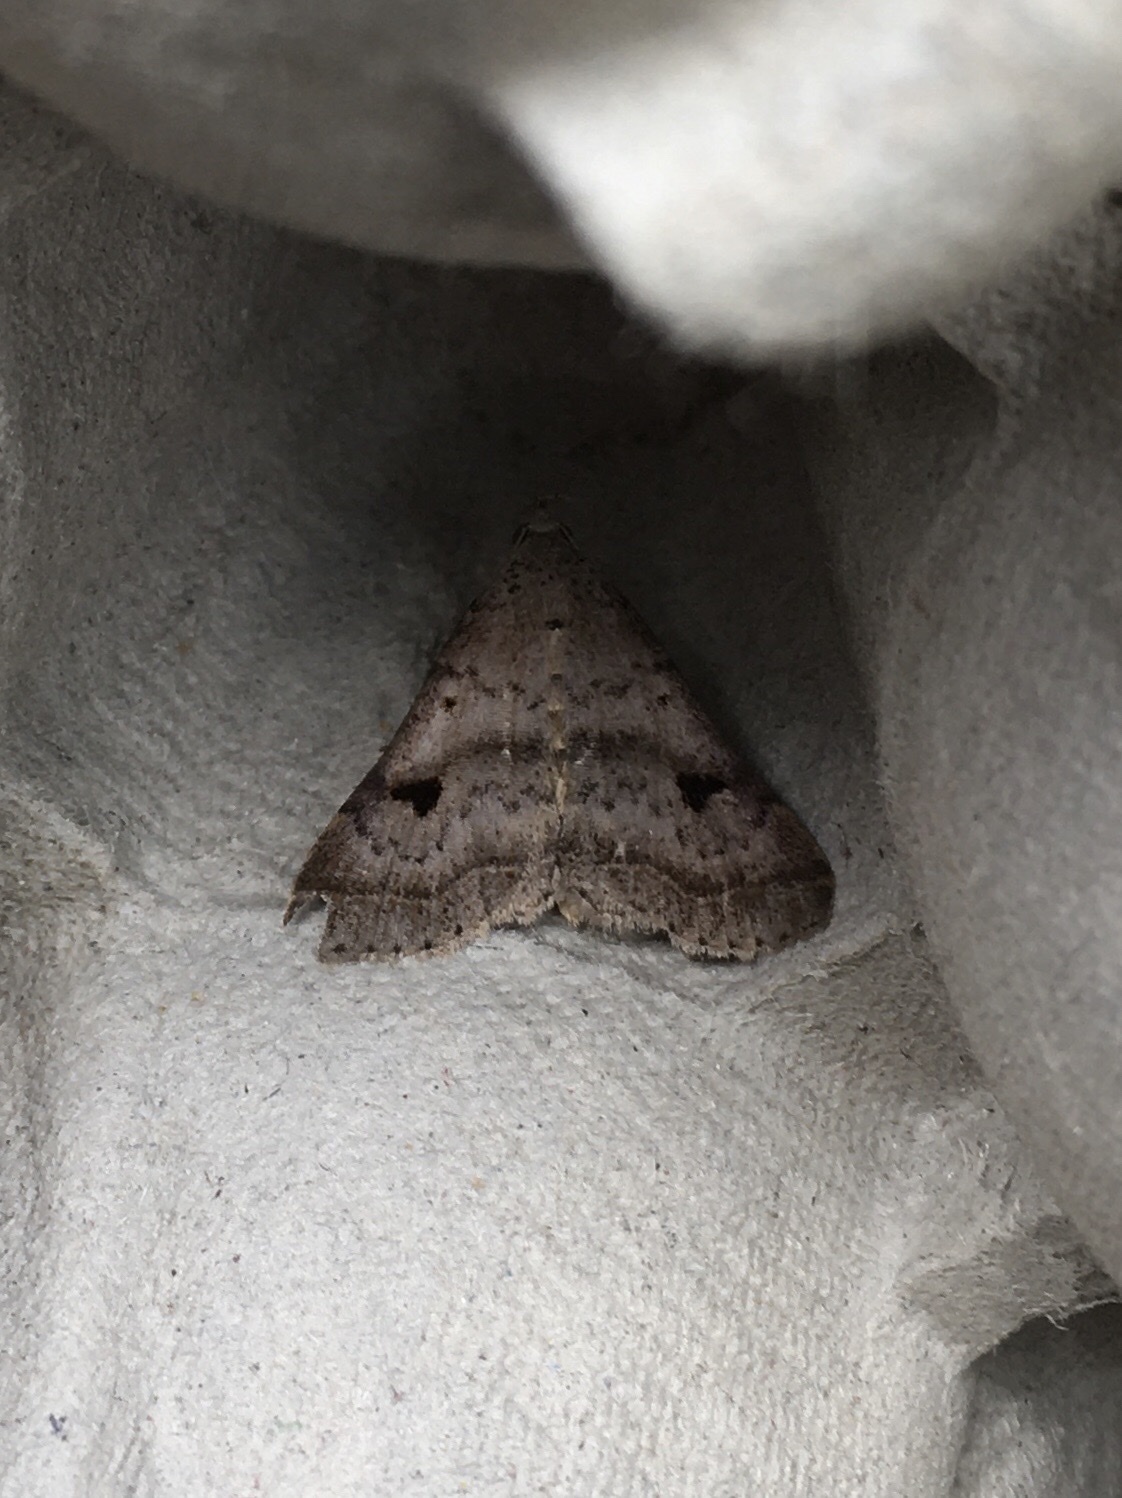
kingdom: Animalia
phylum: Arthropoda
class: Insecta
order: Lepidoptera
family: Erebidae
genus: Bleptina
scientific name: Bleptina caradrinalis
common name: Bent-winged owlet
